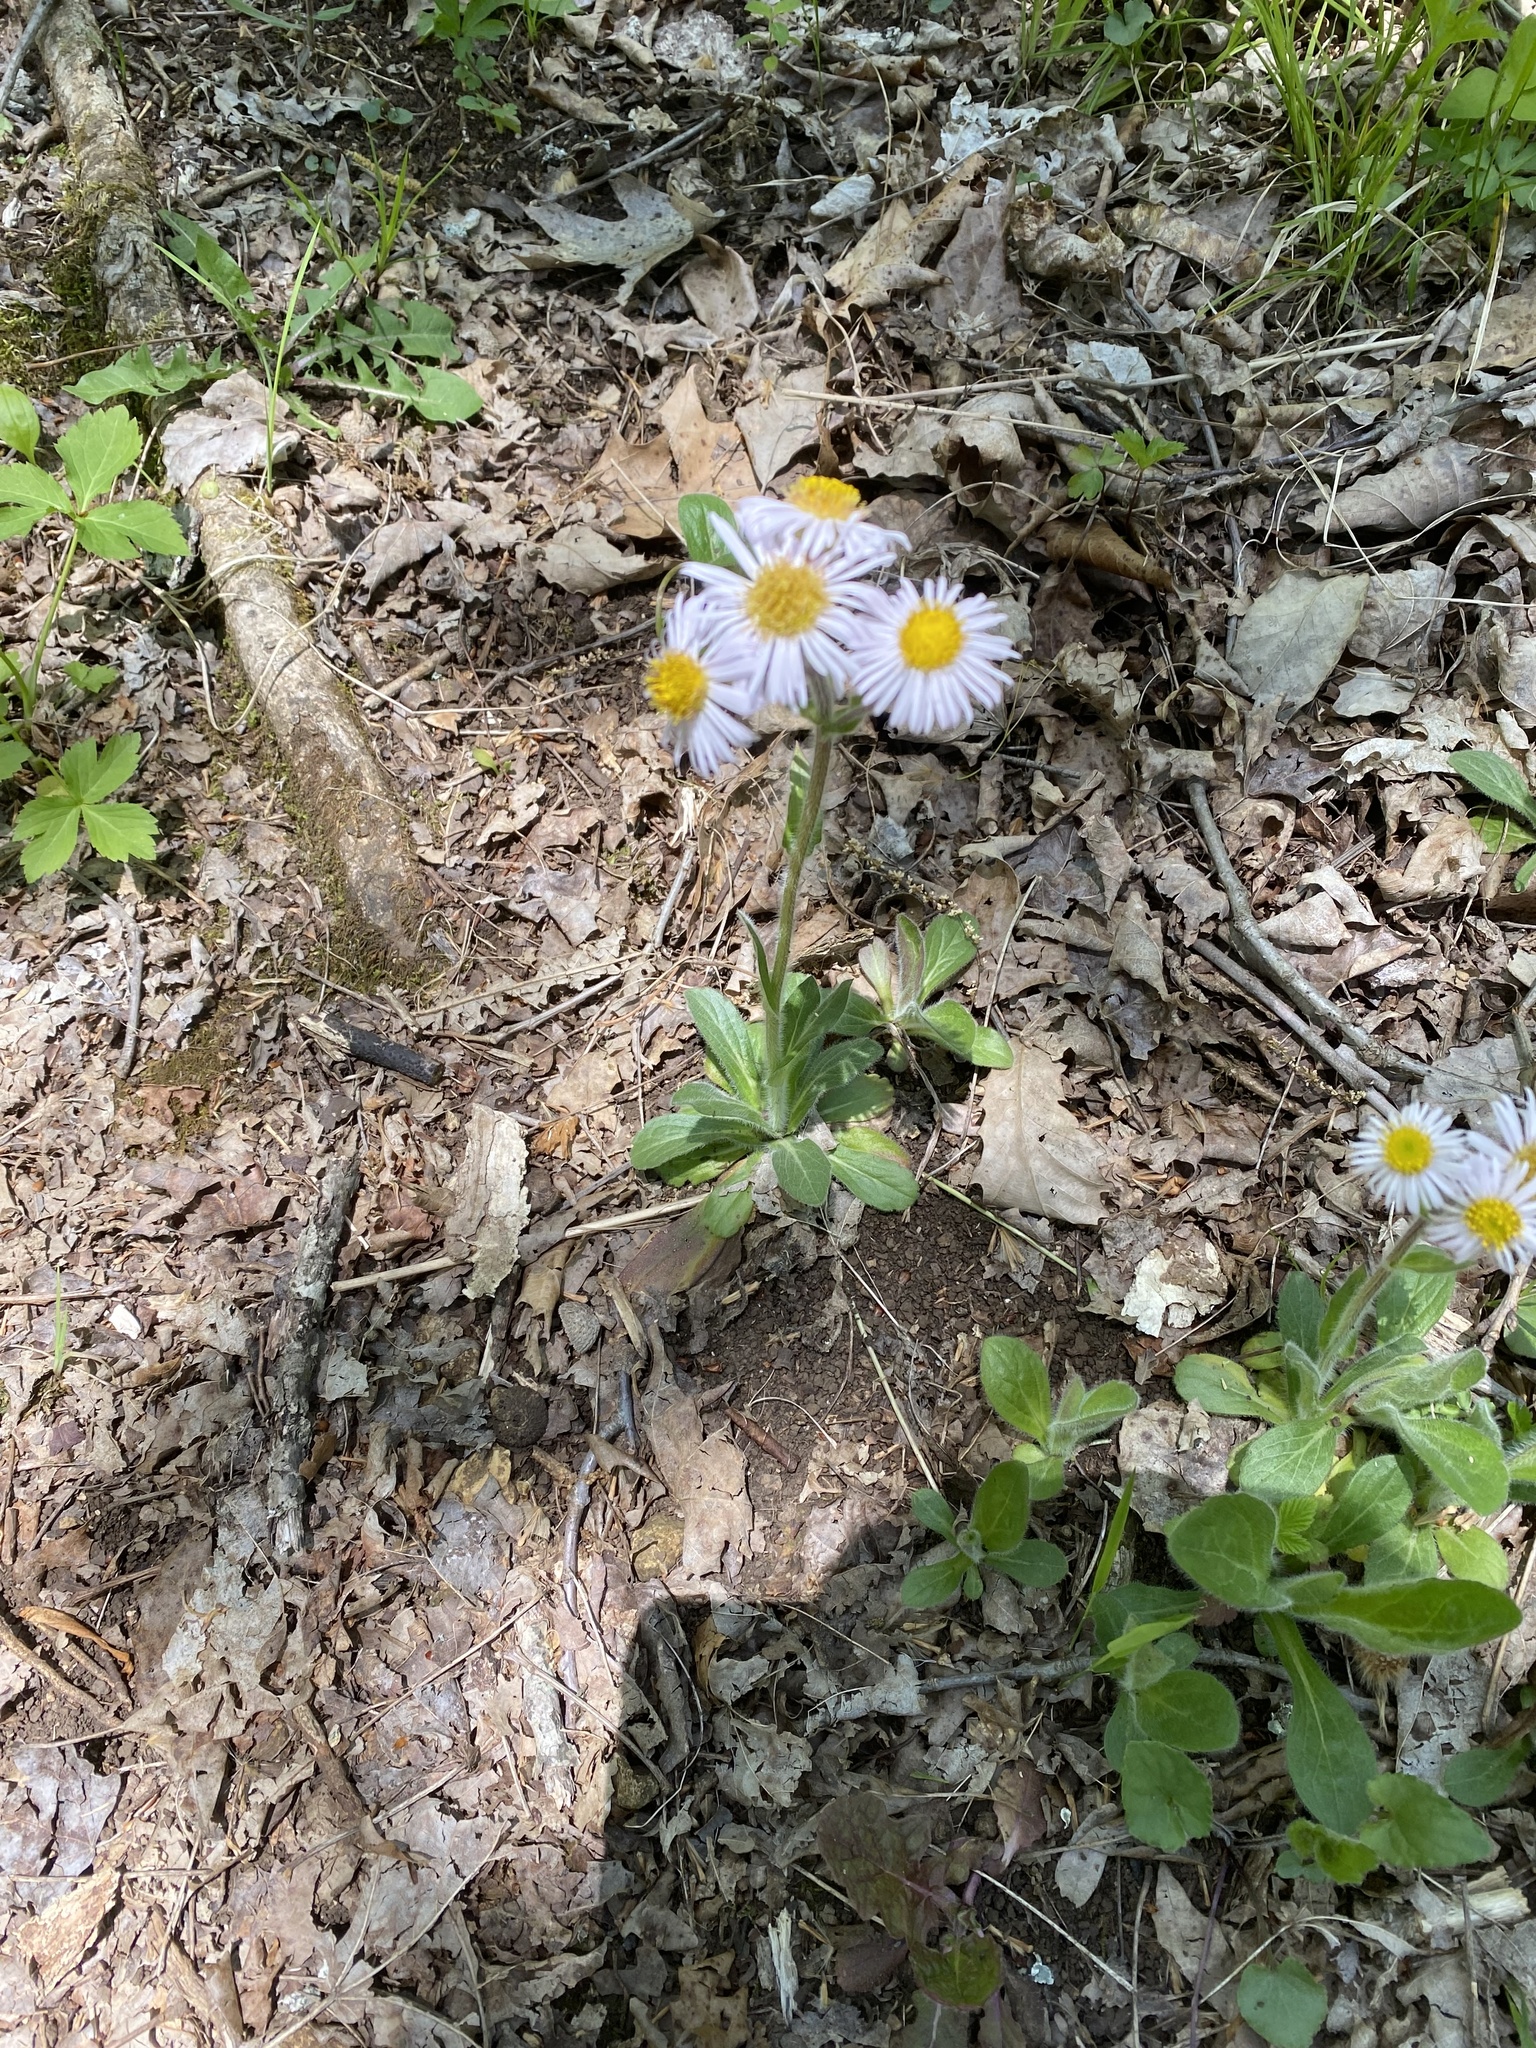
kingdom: Plantae
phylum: Tracheophyta
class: Magnoliopsida
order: Asterales
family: Asteraceae
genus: Erigeron
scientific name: Erigeron pulchellus
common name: Hairy fleabane
